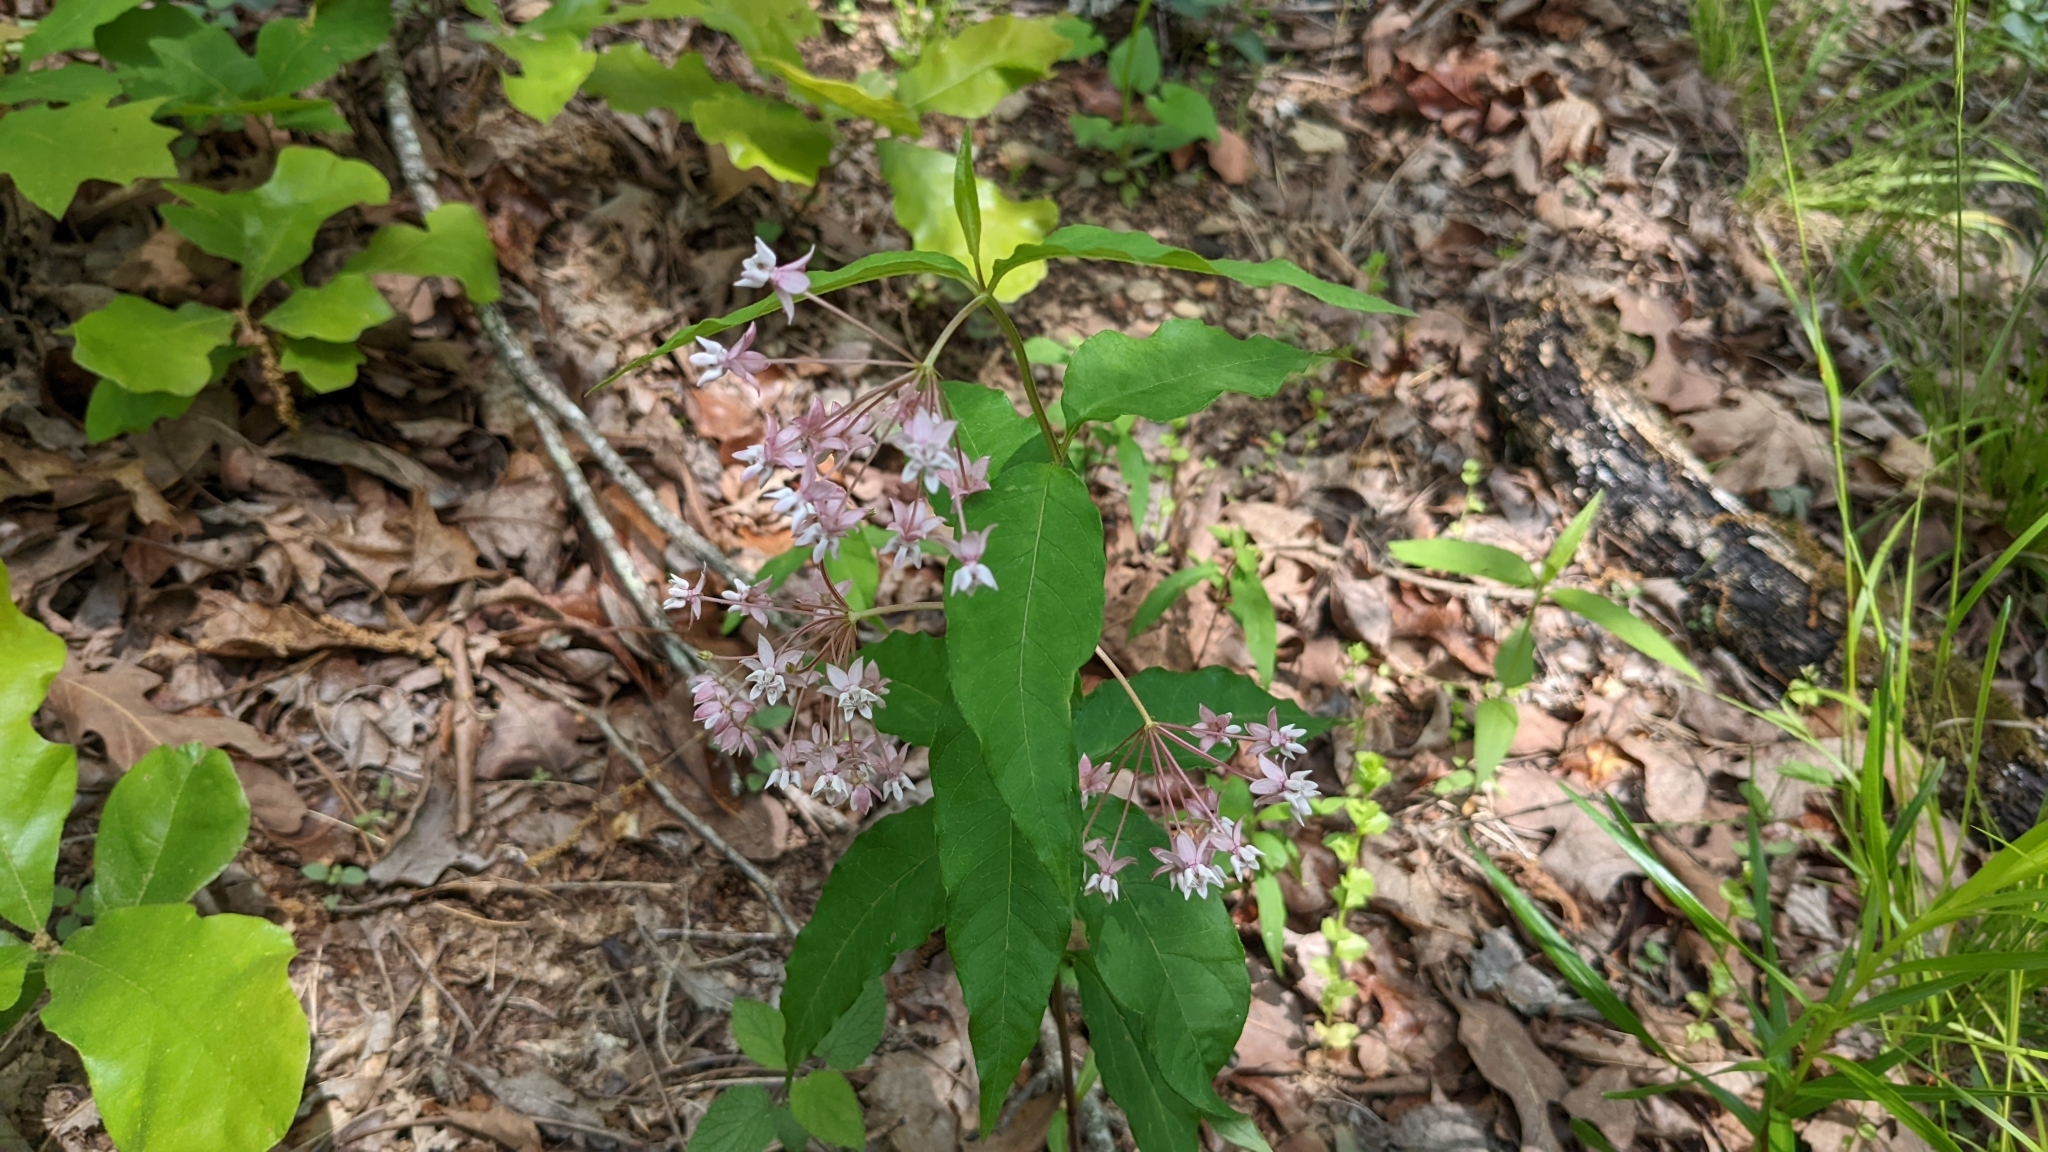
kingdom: Plantae
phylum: Tracheophyta
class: Magnoliopsida
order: Gentianales
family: Apocynaceae
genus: Asclepias
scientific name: Asclepias quadrifolia
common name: Whorled milkweed
